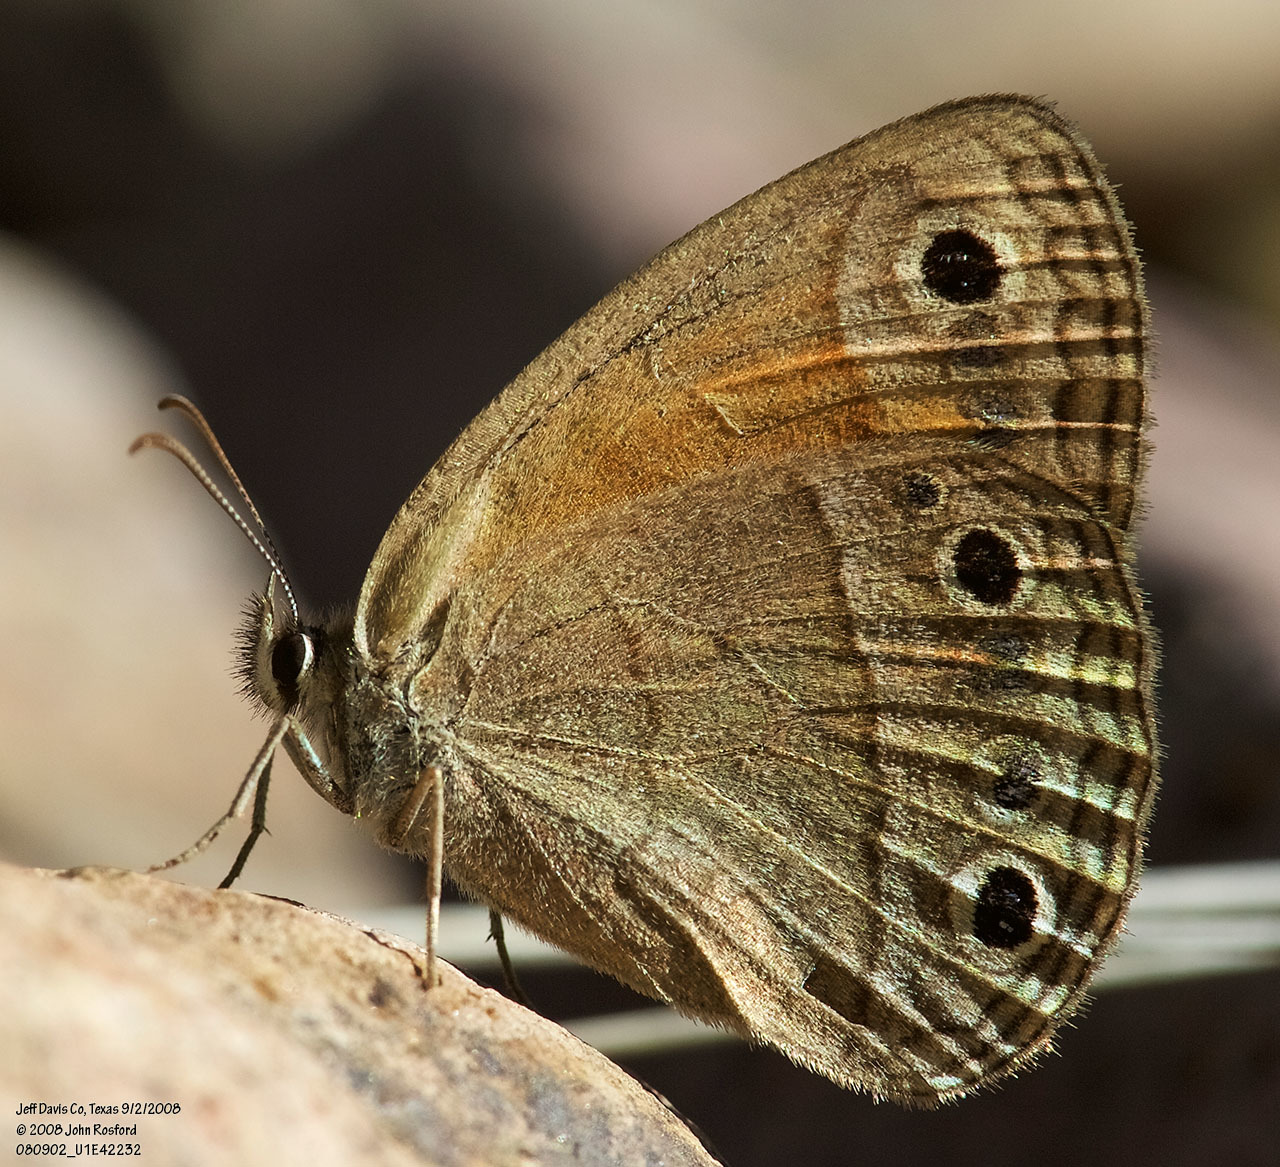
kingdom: Animalia
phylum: Arthropoda
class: Insecta
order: Lepidoptera
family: Nymphalidae
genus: Euptychia
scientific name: Euptychia Cissia rubricata
